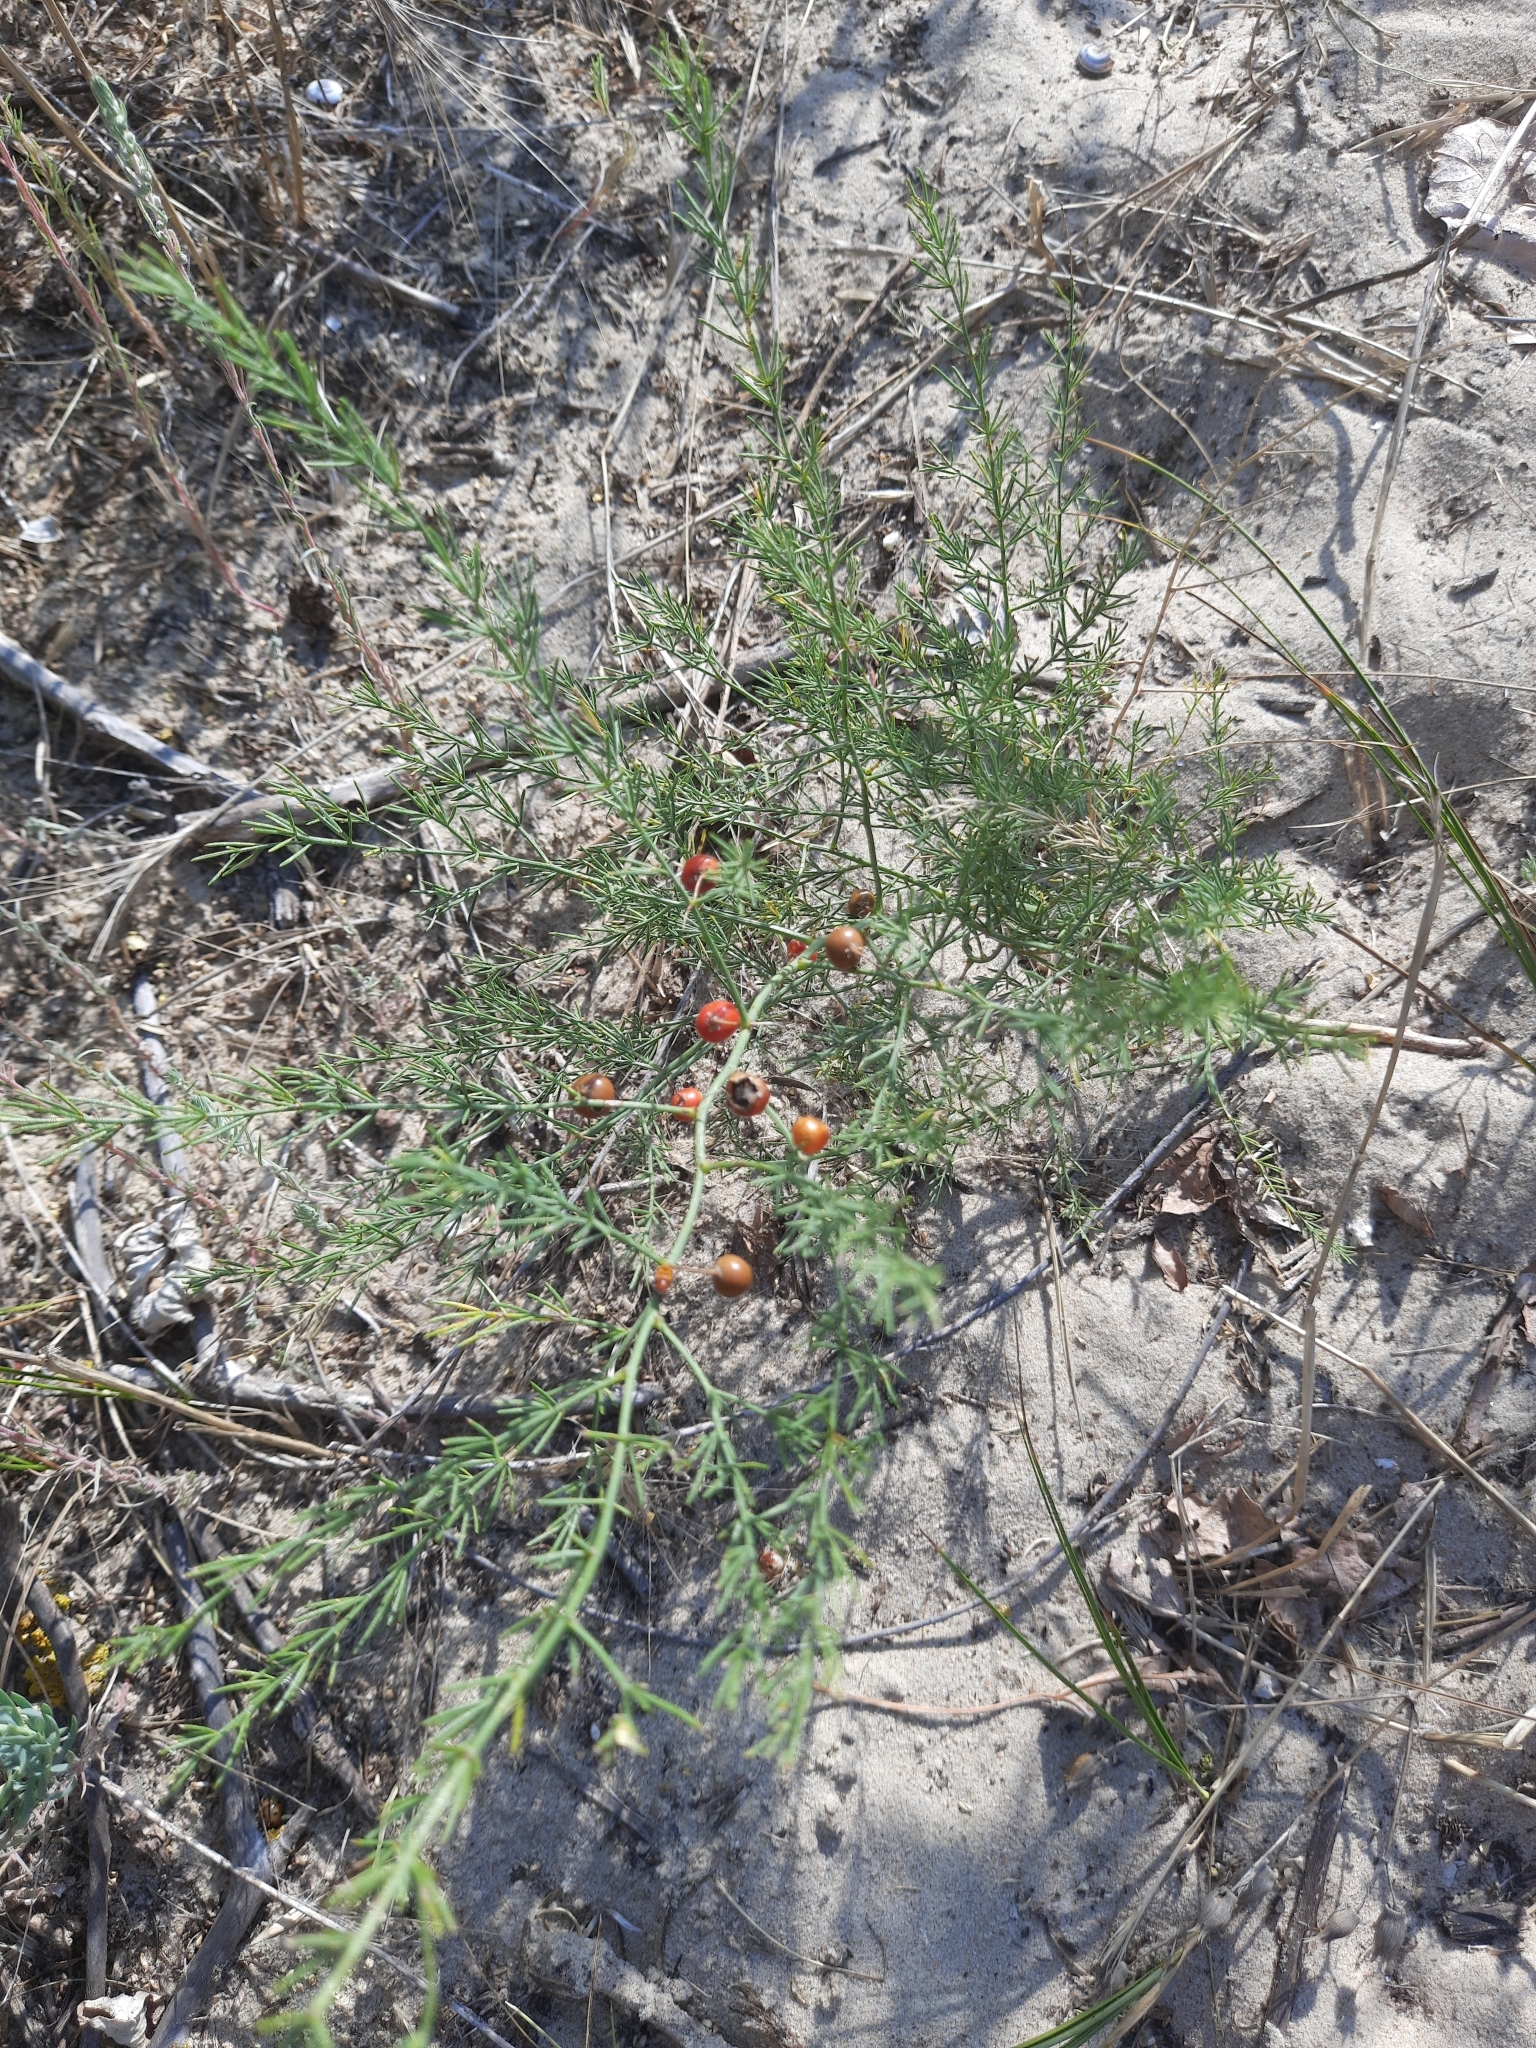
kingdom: Plantae
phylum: Tracheophyta
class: Liliopsida
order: Asparagales
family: Asparagaceae
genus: Asparagus
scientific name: Asparagus officinalis
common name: Garden asparagus
